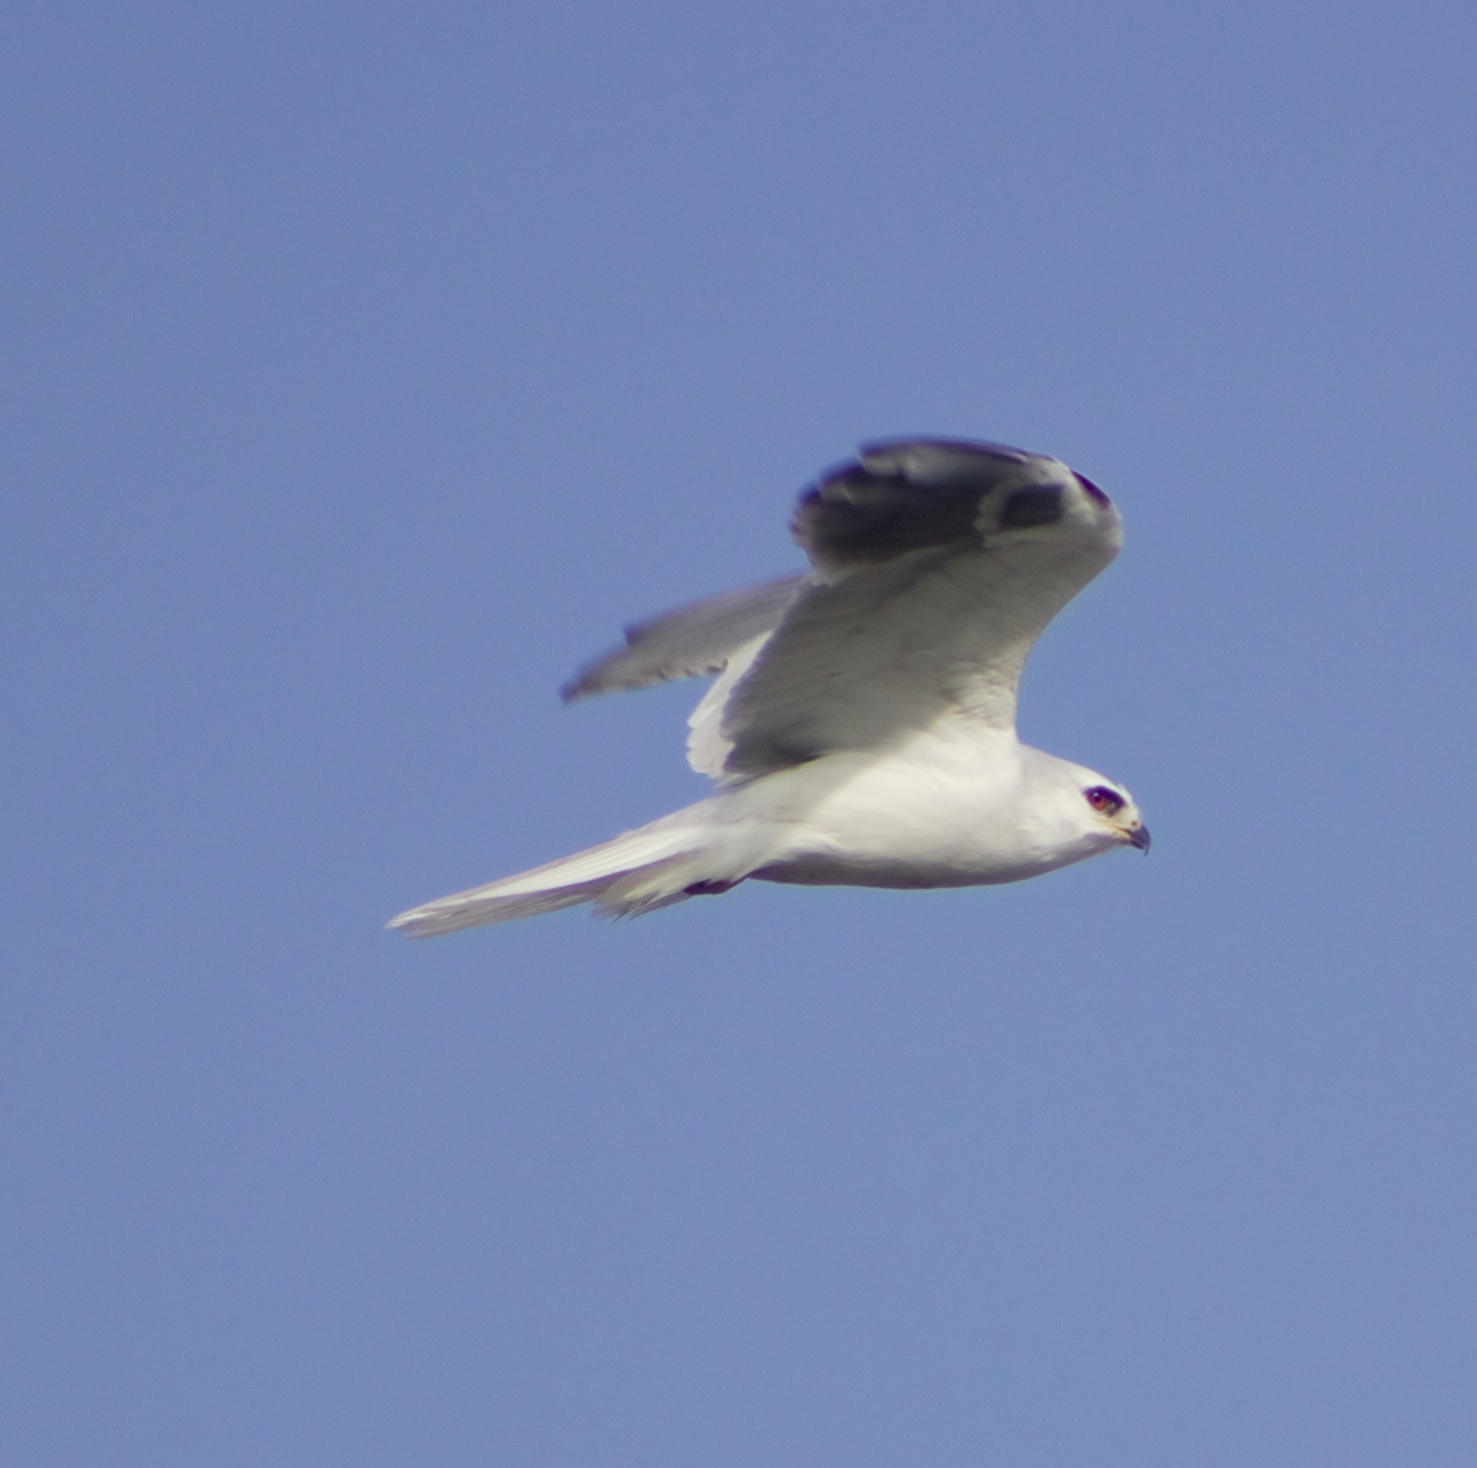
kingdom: Animalia
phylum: Chordata
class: Aves
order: Accipitriformes
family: Accipitridae
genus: Elanus
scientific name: Elanus leucurus
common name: White-tailed kite
